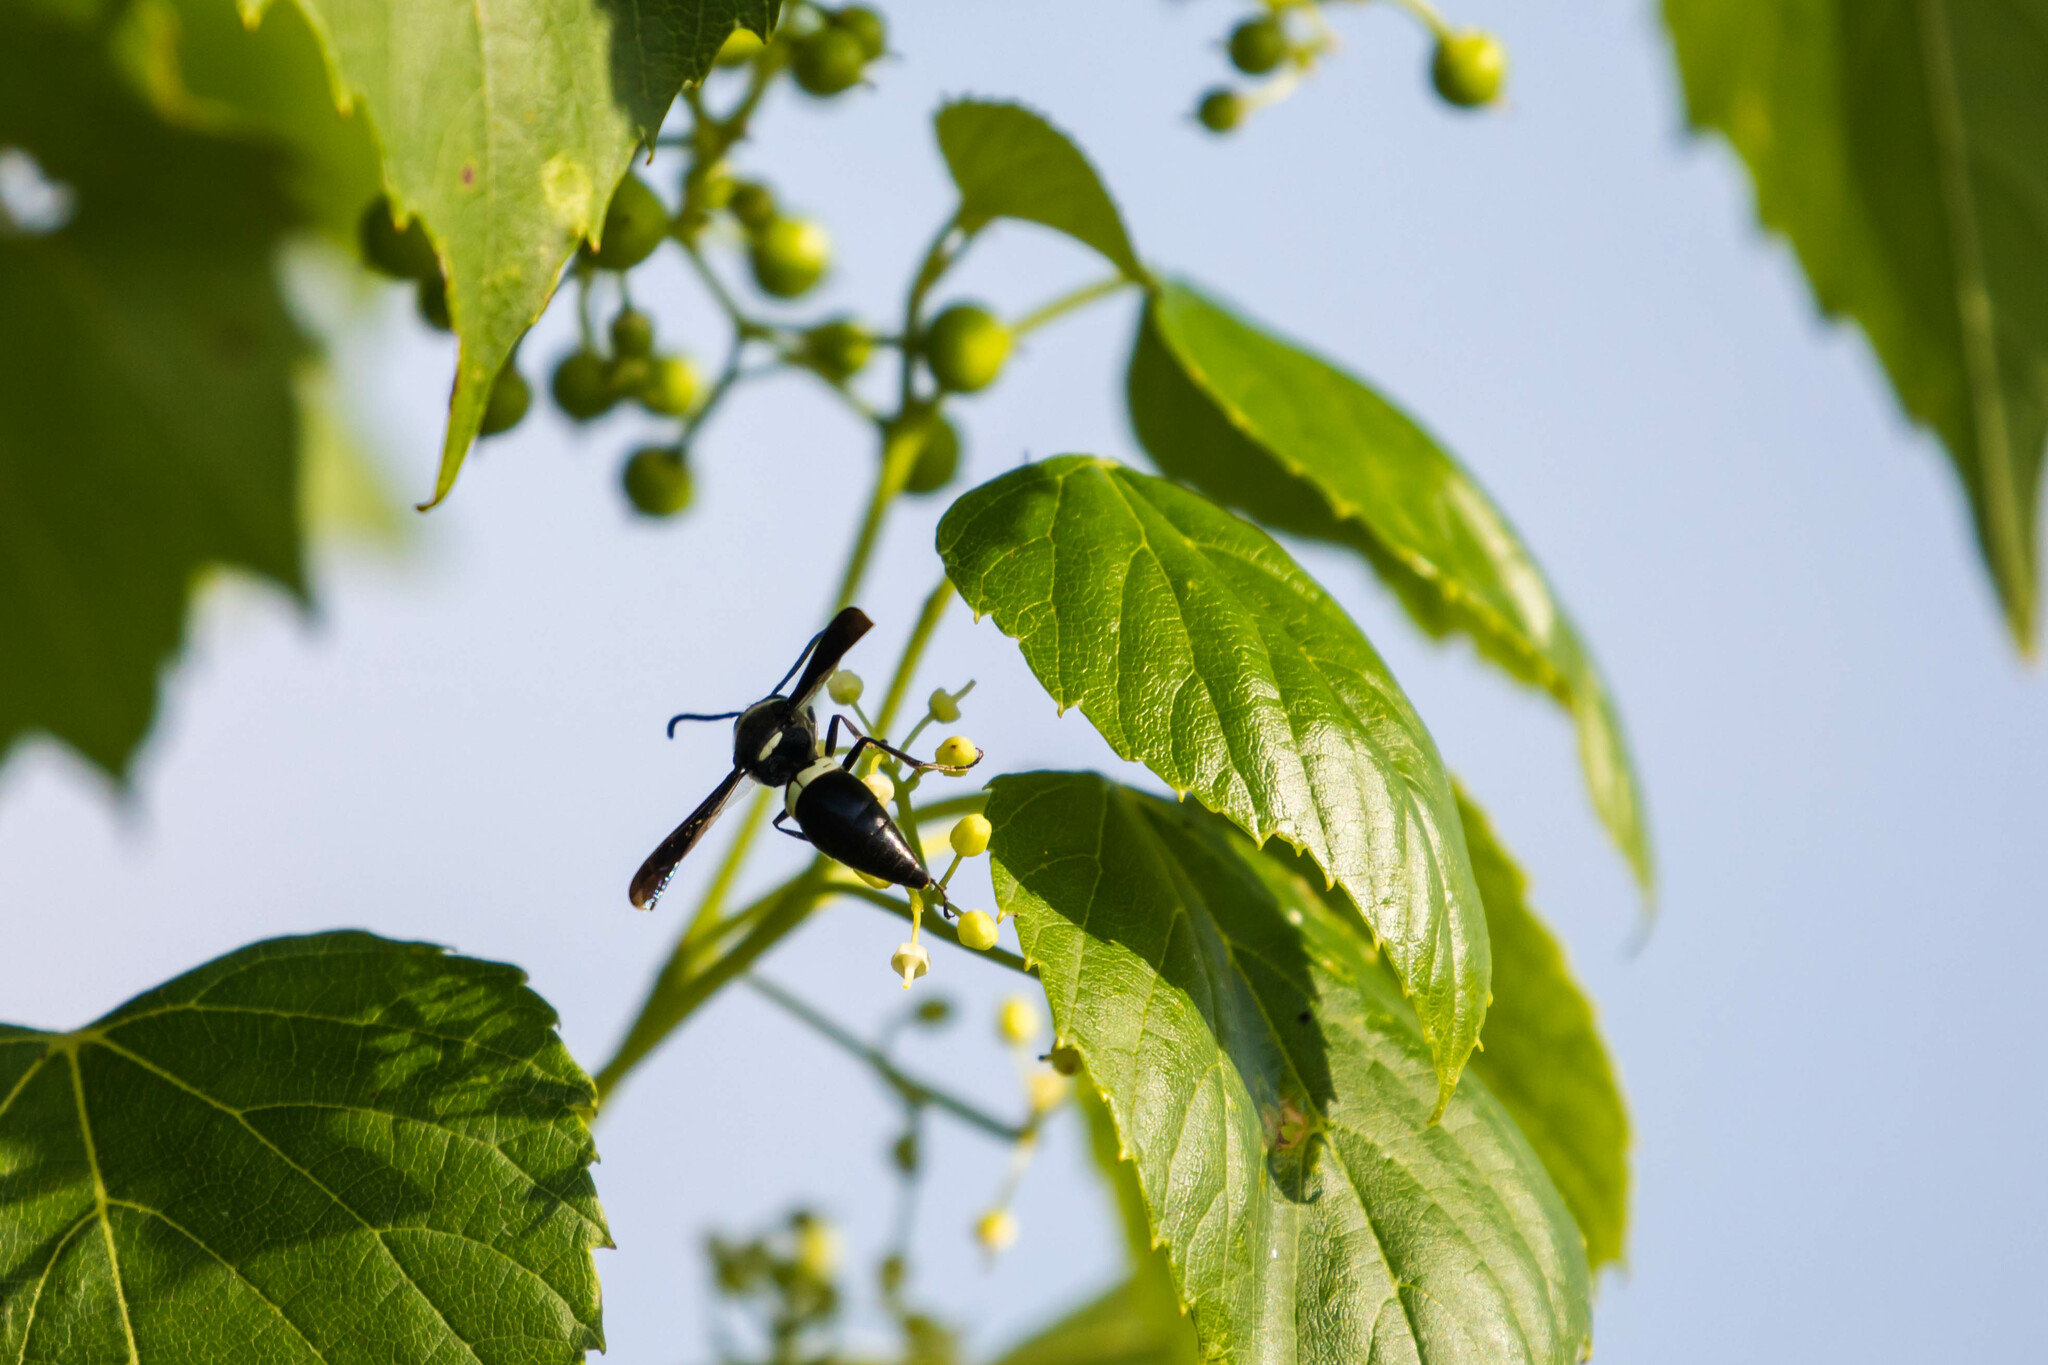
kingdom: Animalia
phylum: Arthropoda
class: Insecta
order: Hymenoptera
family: Eumenidae
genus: Monobia
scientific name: Monobia quadridens
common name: Four-toothed mason wasp
